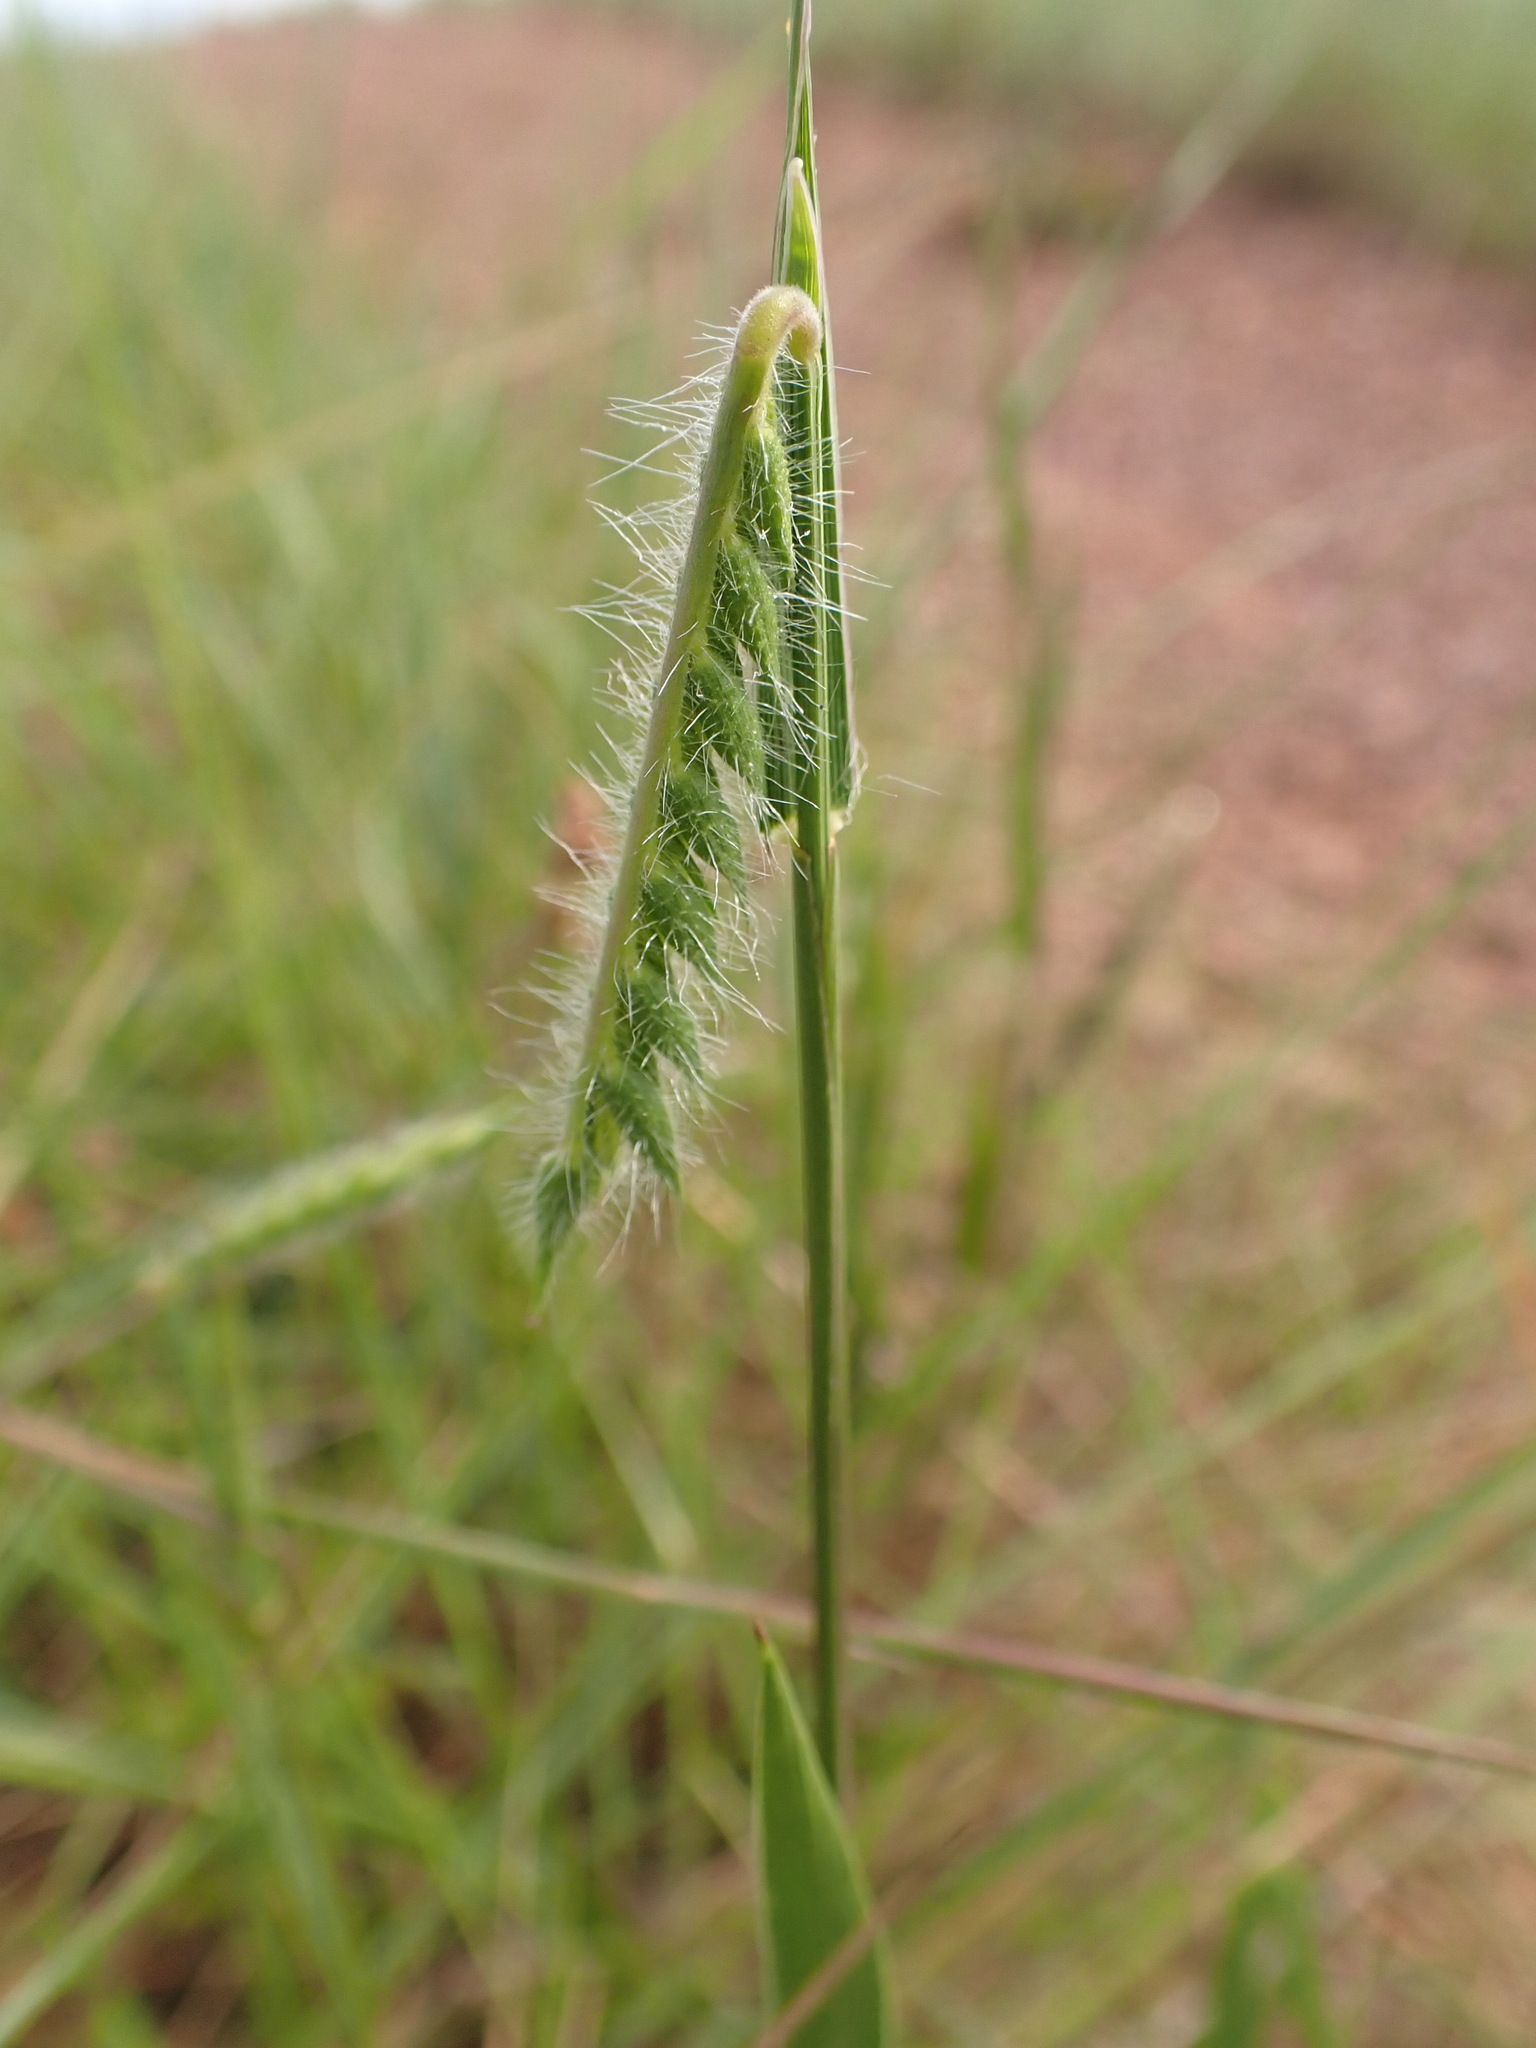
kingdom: Plantae
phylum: Tracheophyta
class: Liliopsida
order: Poales
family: Poaceae
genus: Echinolaena
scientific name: Echinolaena inflexa
